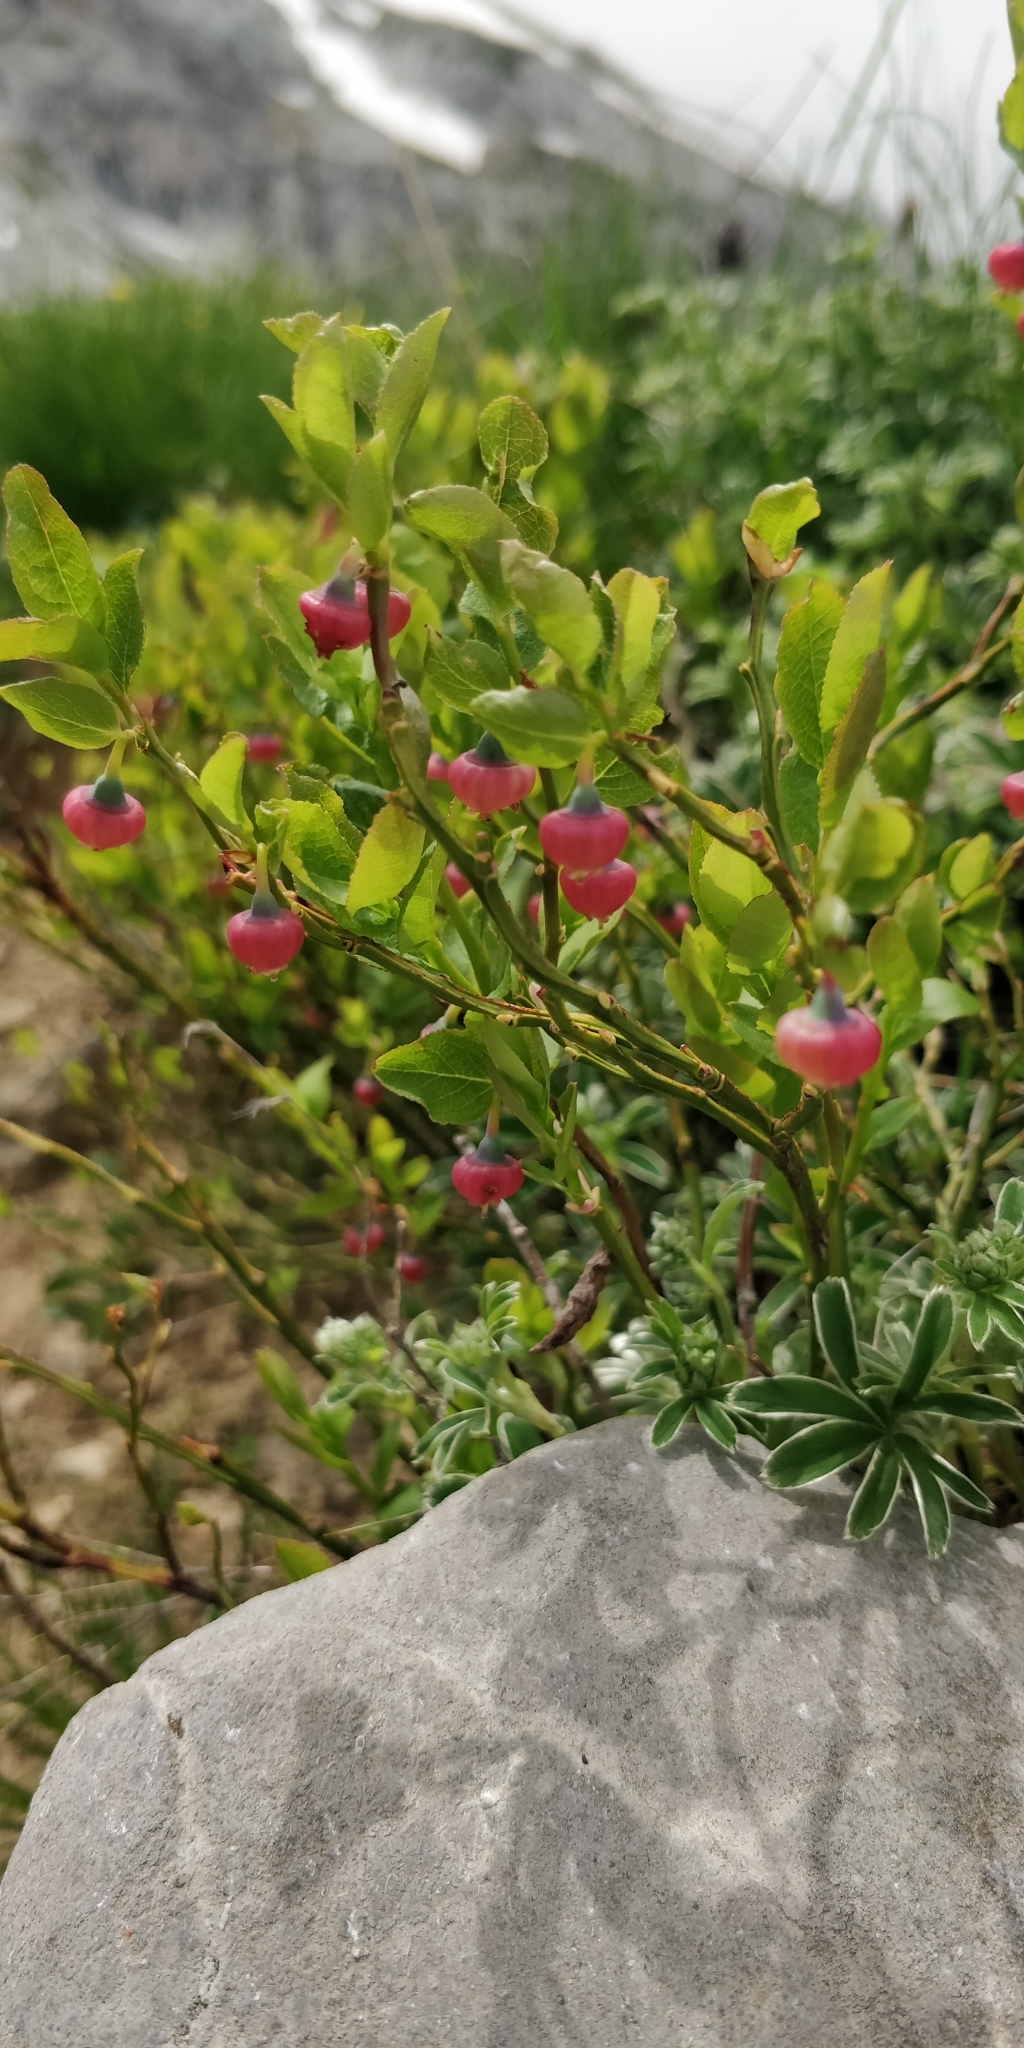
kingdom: Plantae
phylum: Tracheophyta
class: Magnoliopsida
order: Ericales
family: Ericaceae
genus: Vaccinium
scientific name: Vaccinium myrtillus
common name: Bilberry
